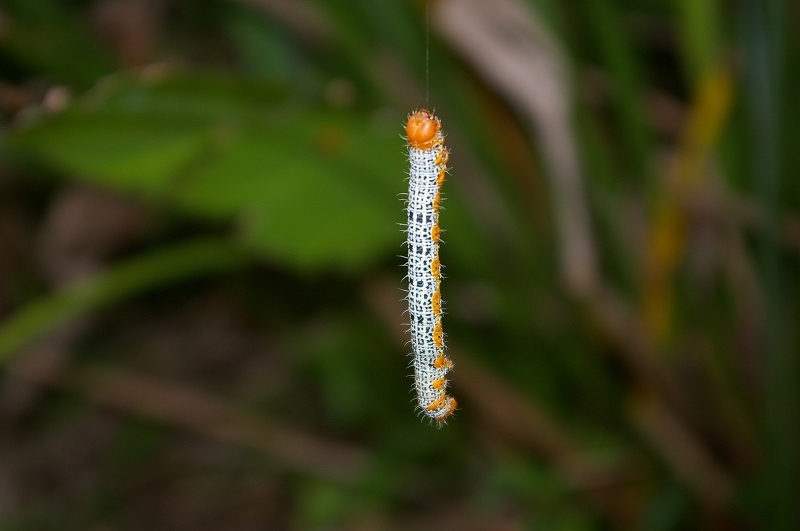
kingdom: Animalia
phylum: Arthropoda
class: Insecta
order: Lepidoptera
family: Geometridae
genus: Milionia
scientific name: Milionia basalis
